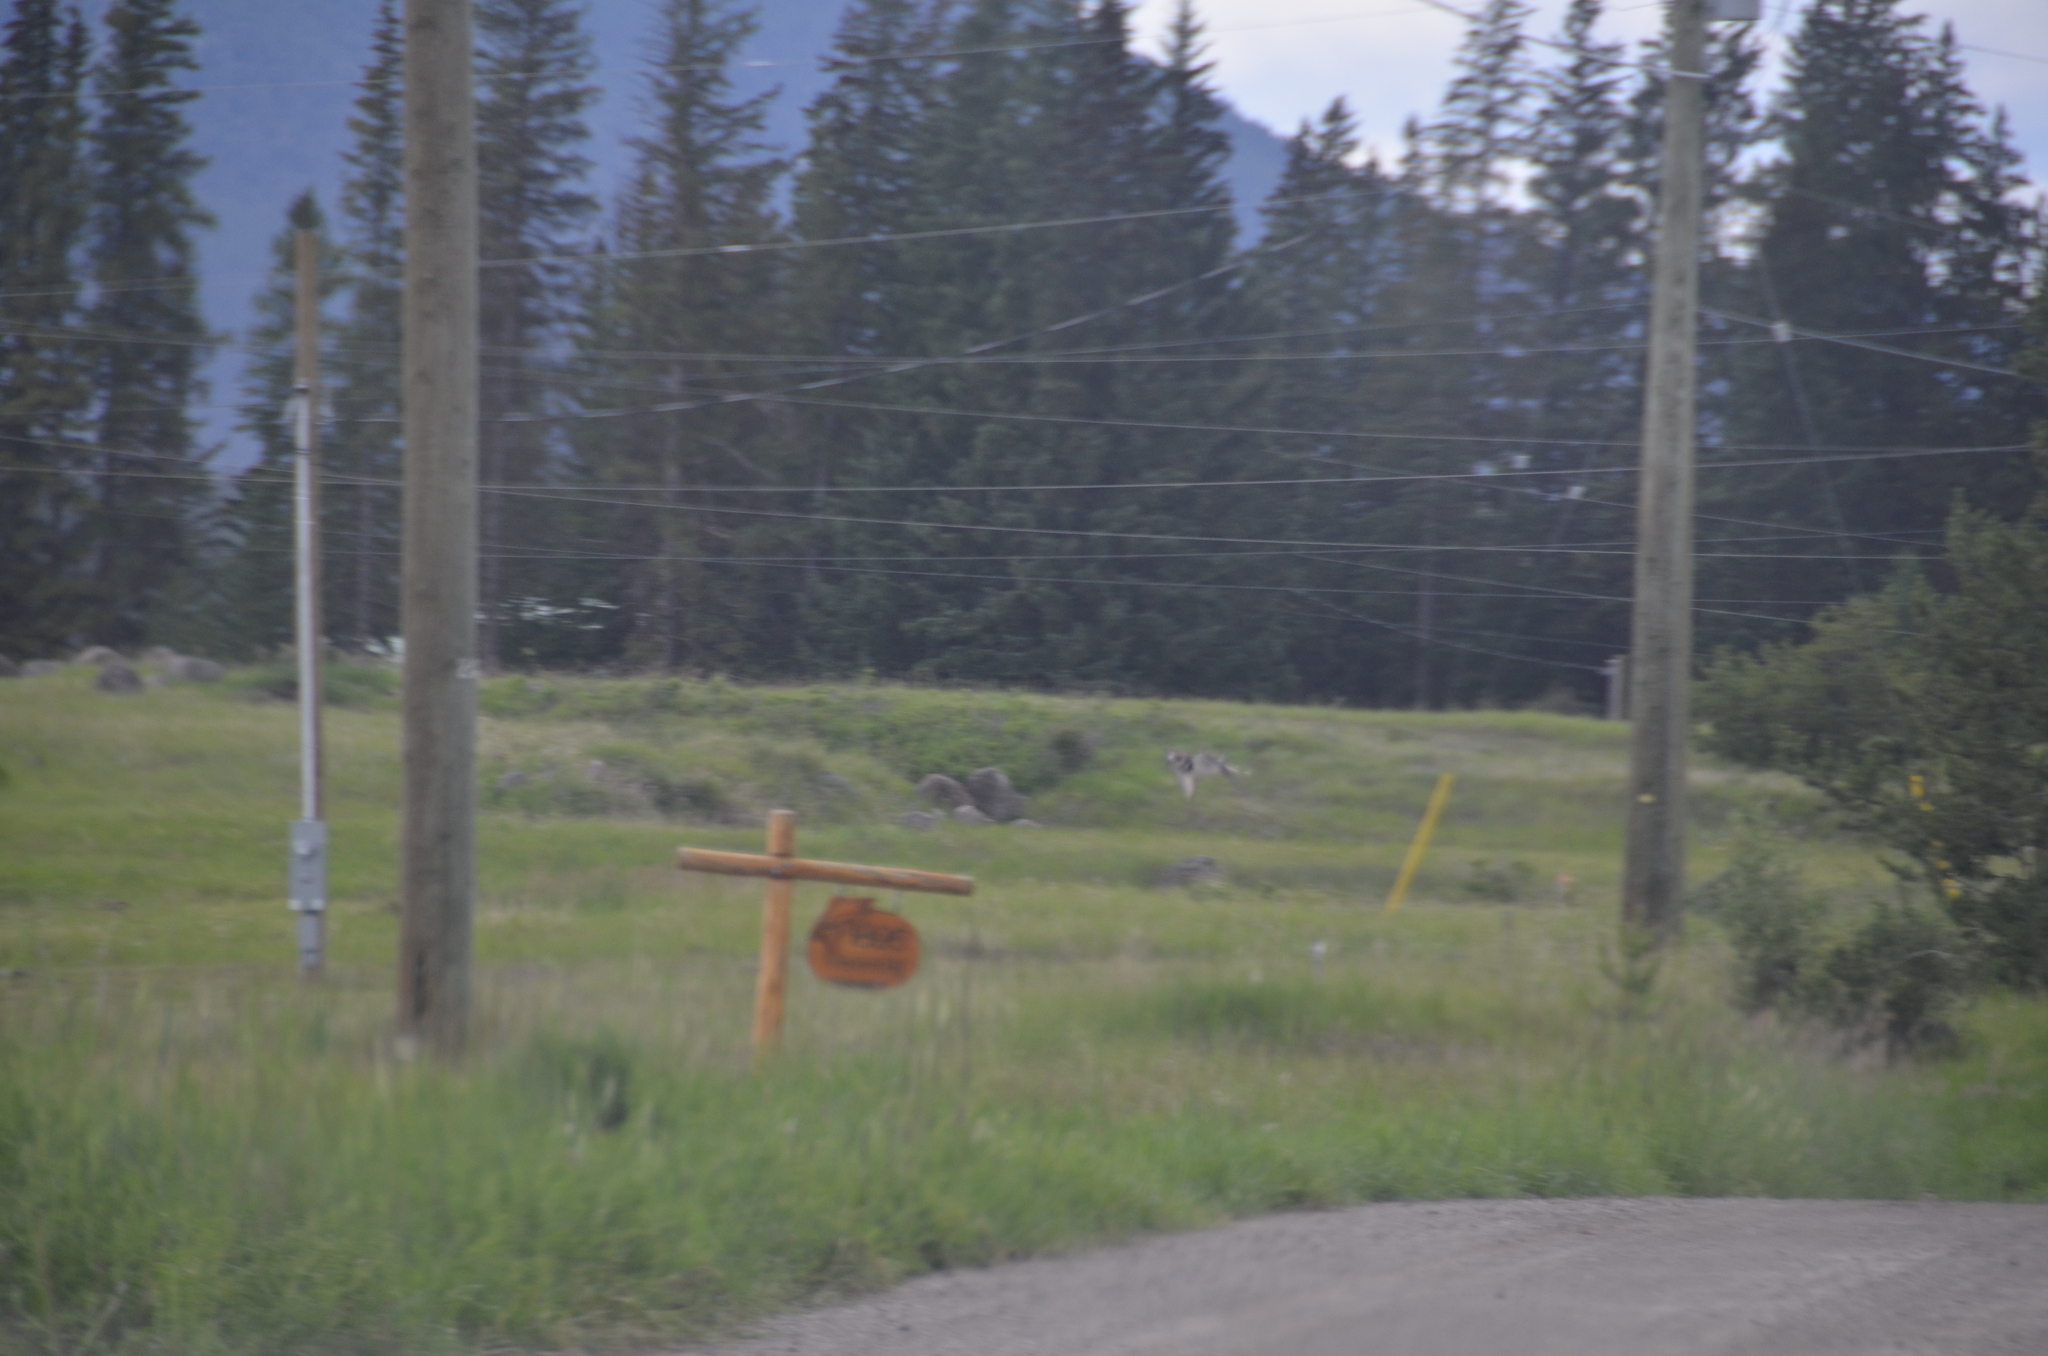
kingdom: Animalia
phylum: Chordata
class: Aves
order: Charadriiformes
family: Charadriidae
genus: Charadrius
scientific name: Charadrius vociferus
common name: Killdeer
